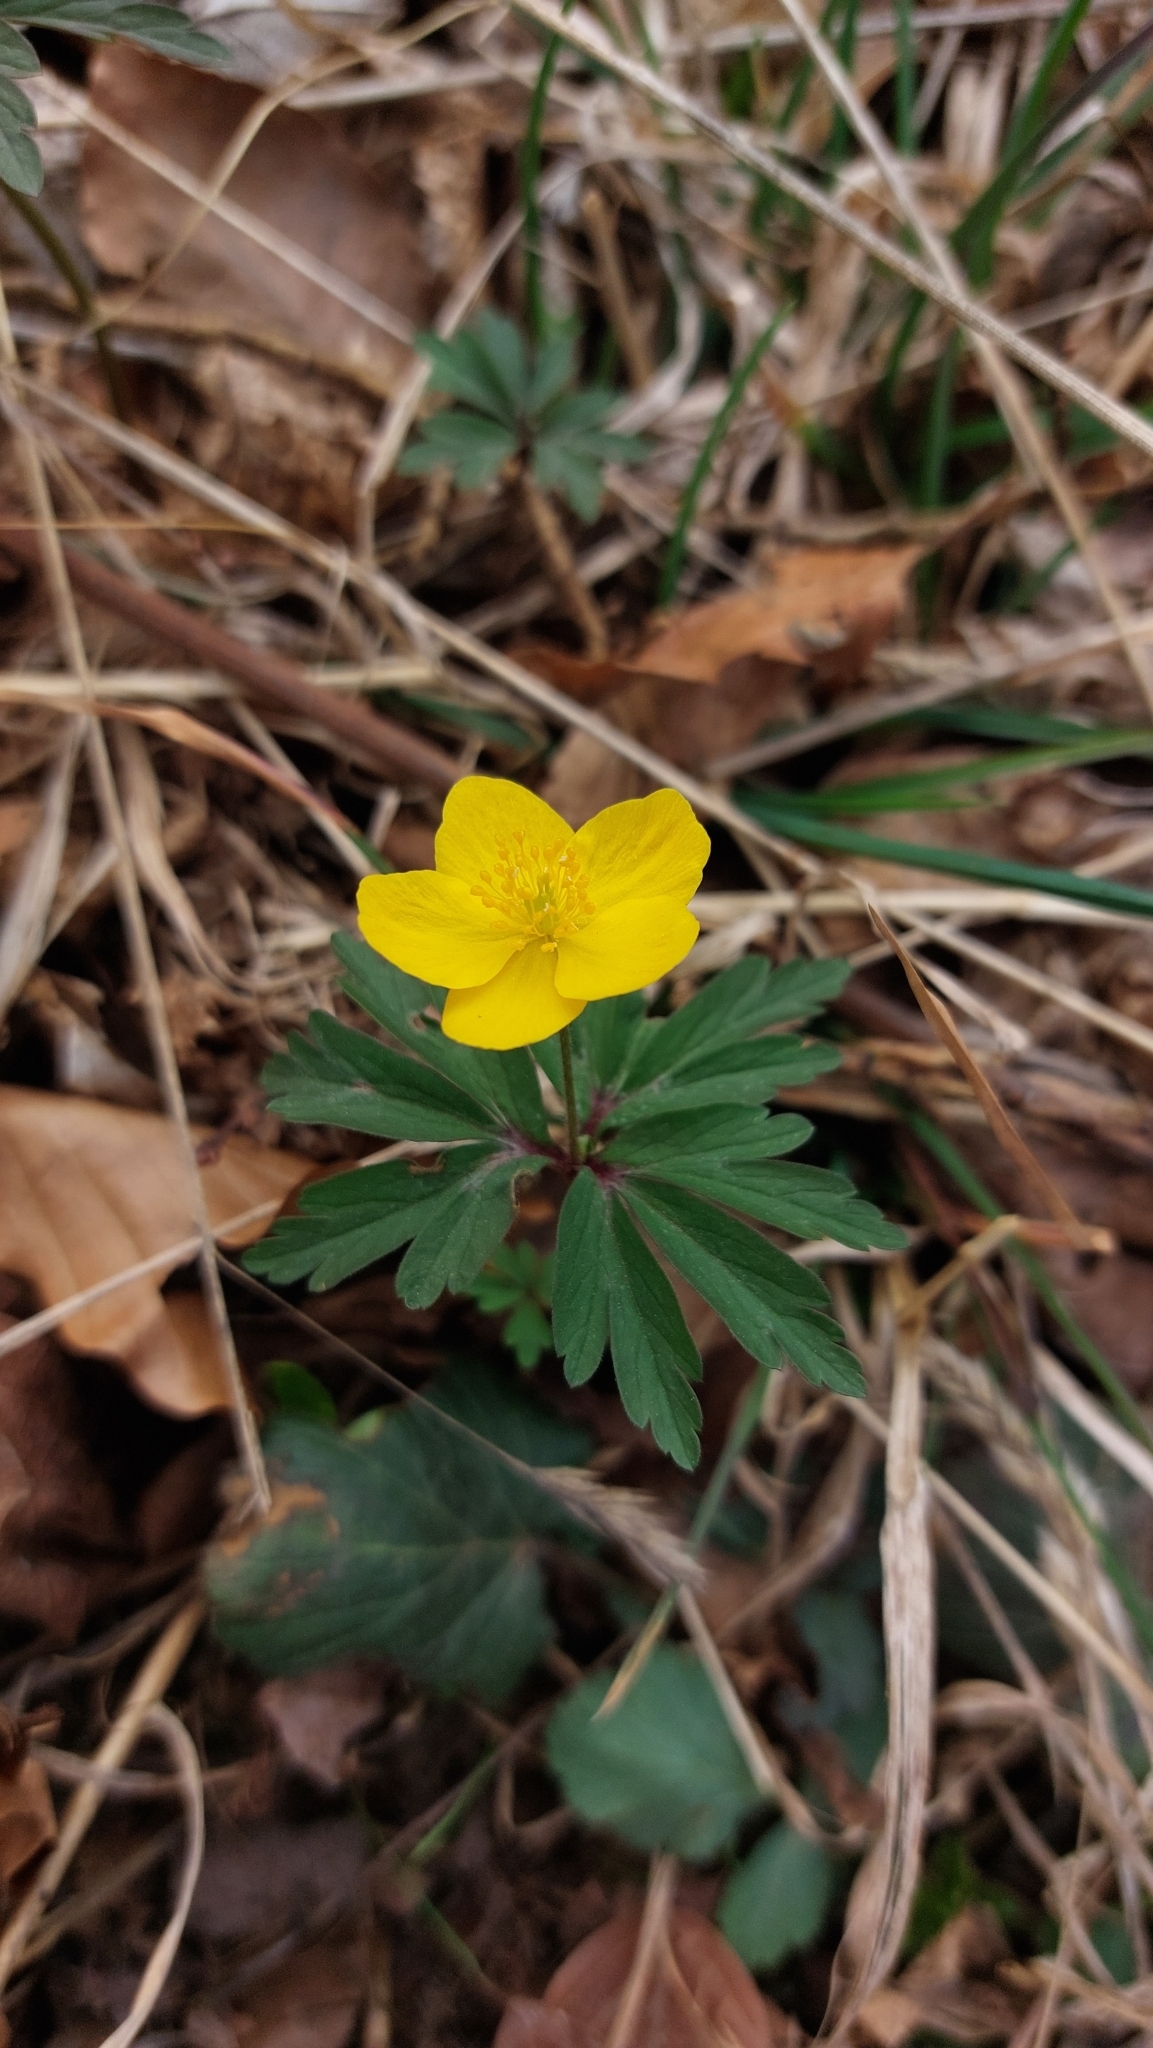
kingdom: Plantae
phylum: Tracheophyta
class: Magnoliopsida
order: Ranunculales
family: Ranunculaceae
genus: Anemone
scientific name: Anemone ranunculoides
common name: Yellow anemone
